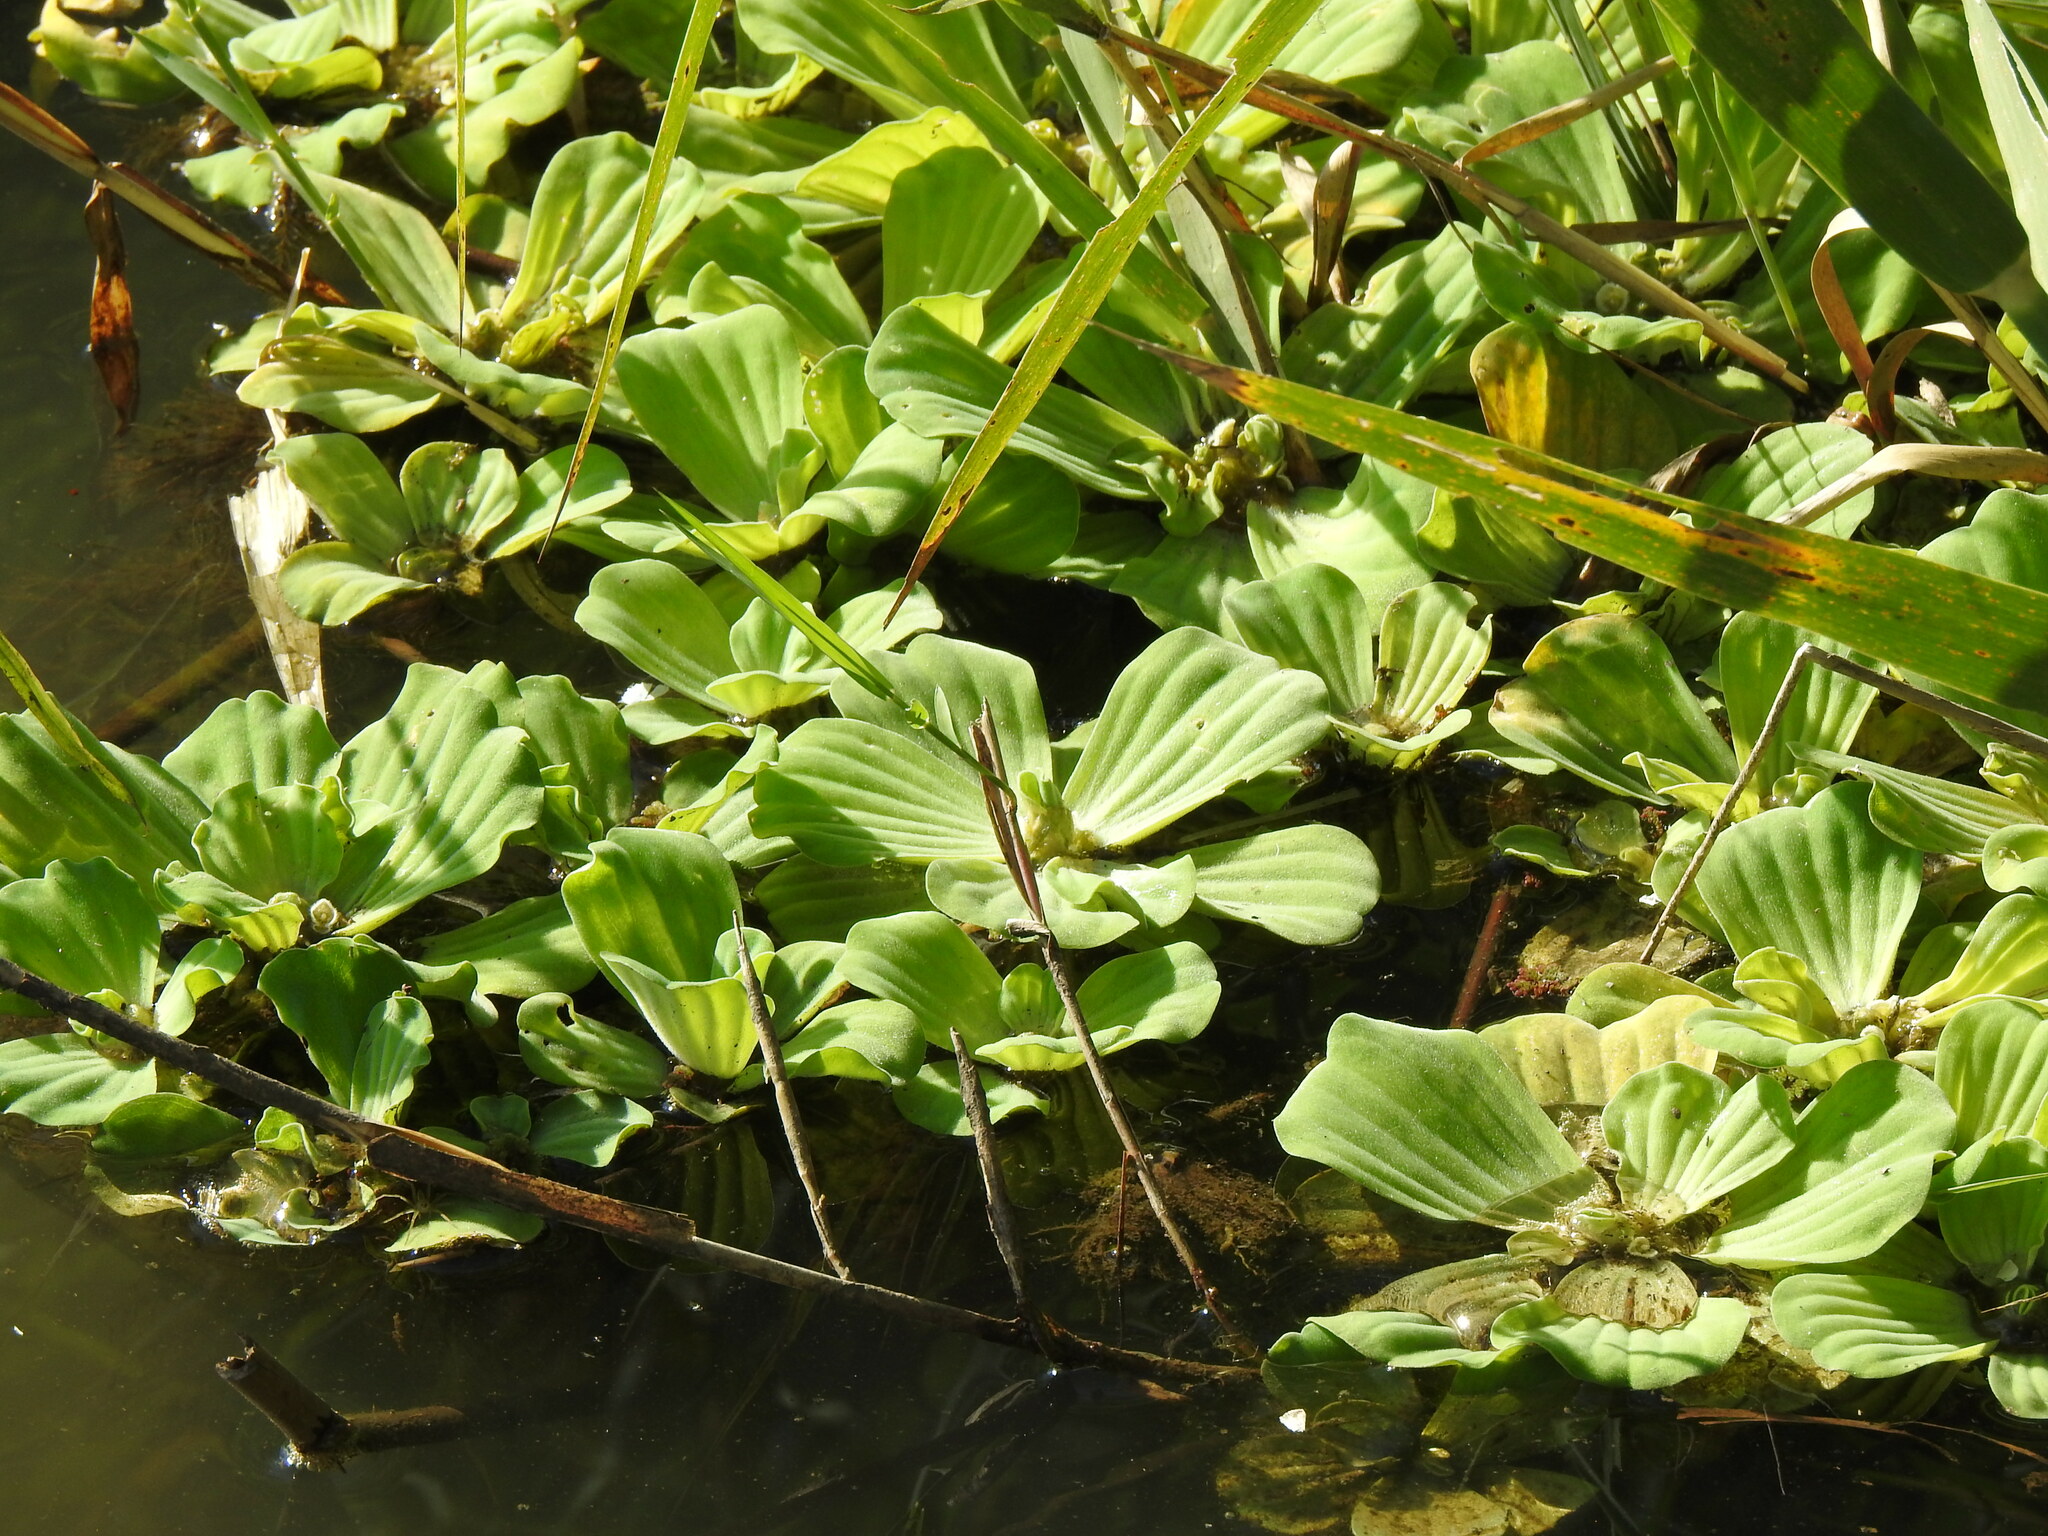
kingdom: Plantae
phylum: Tracheophyta
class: Liliopsida
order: Alismatales
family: Araceae
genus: Pistia
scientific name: Pistia stratiotes
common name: Water lettuce
